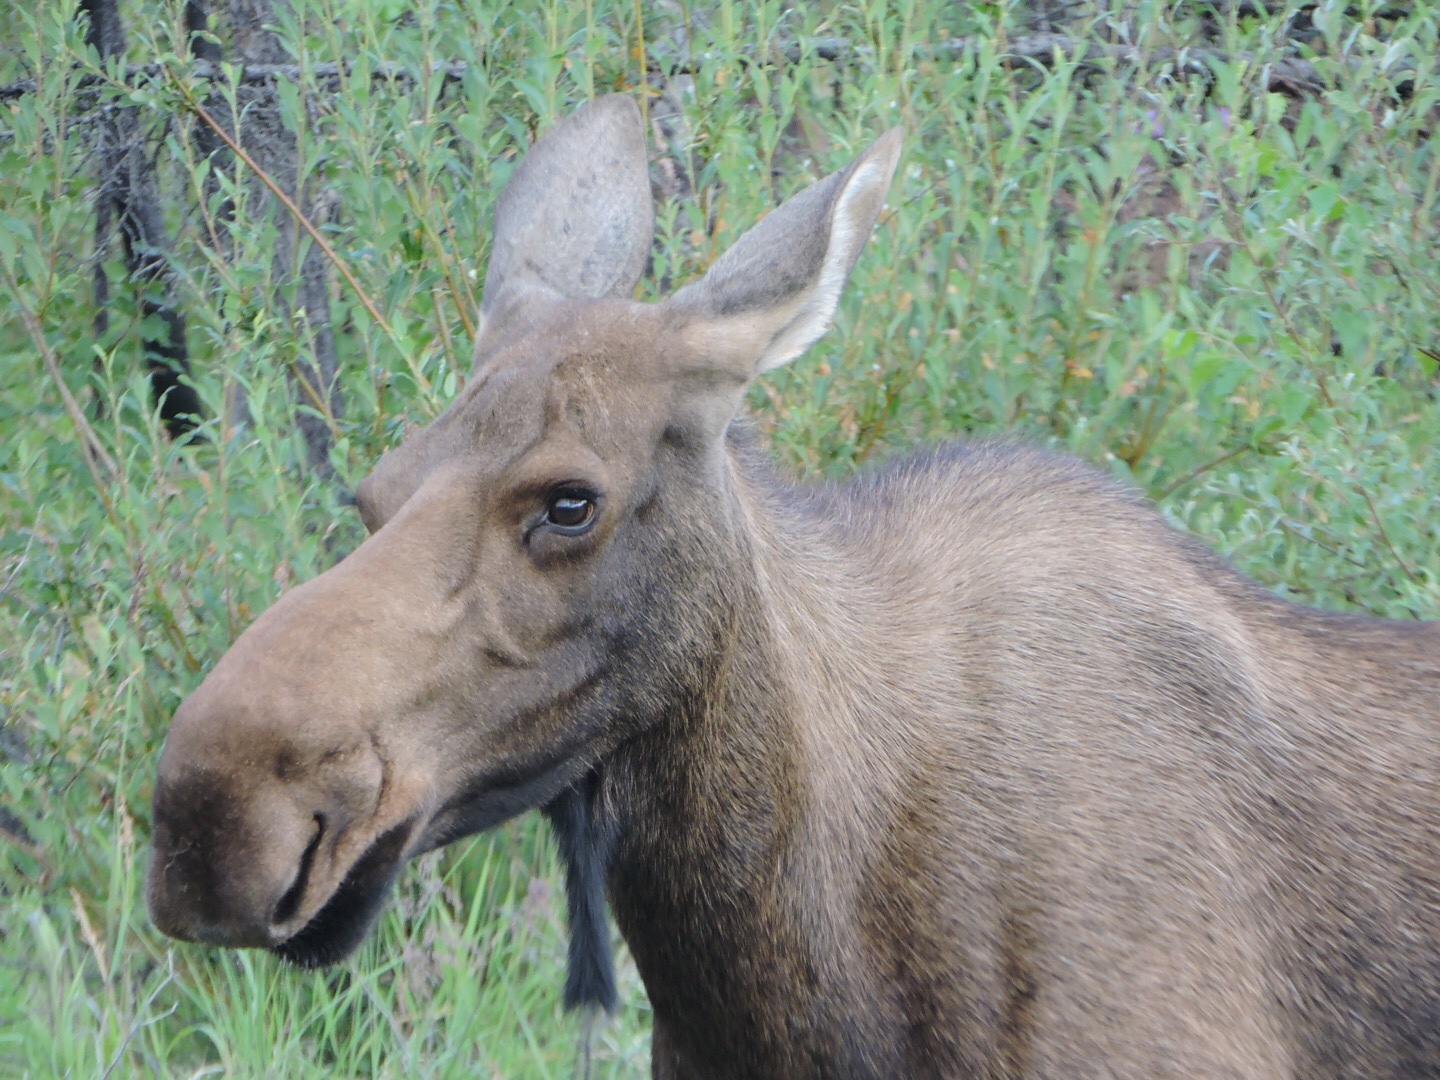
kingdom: Animalia
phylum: Chordata
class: Mammalia
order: Artiodactyla
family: Cervidae
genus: Alces
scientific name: Alces alces
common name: Moose
